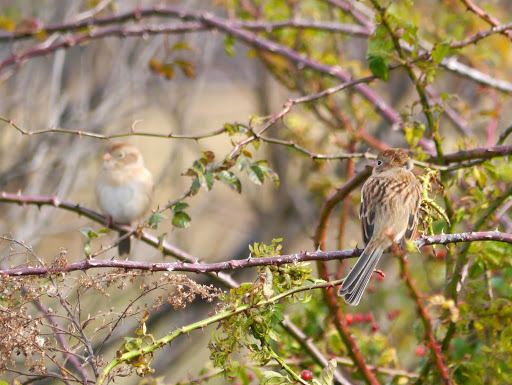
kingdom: Animalia
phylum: Chordata
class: Aves
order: Passeriformes
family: Passerellidae
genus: Spizella
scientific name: Spizella pusilla
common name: Field sparrow
